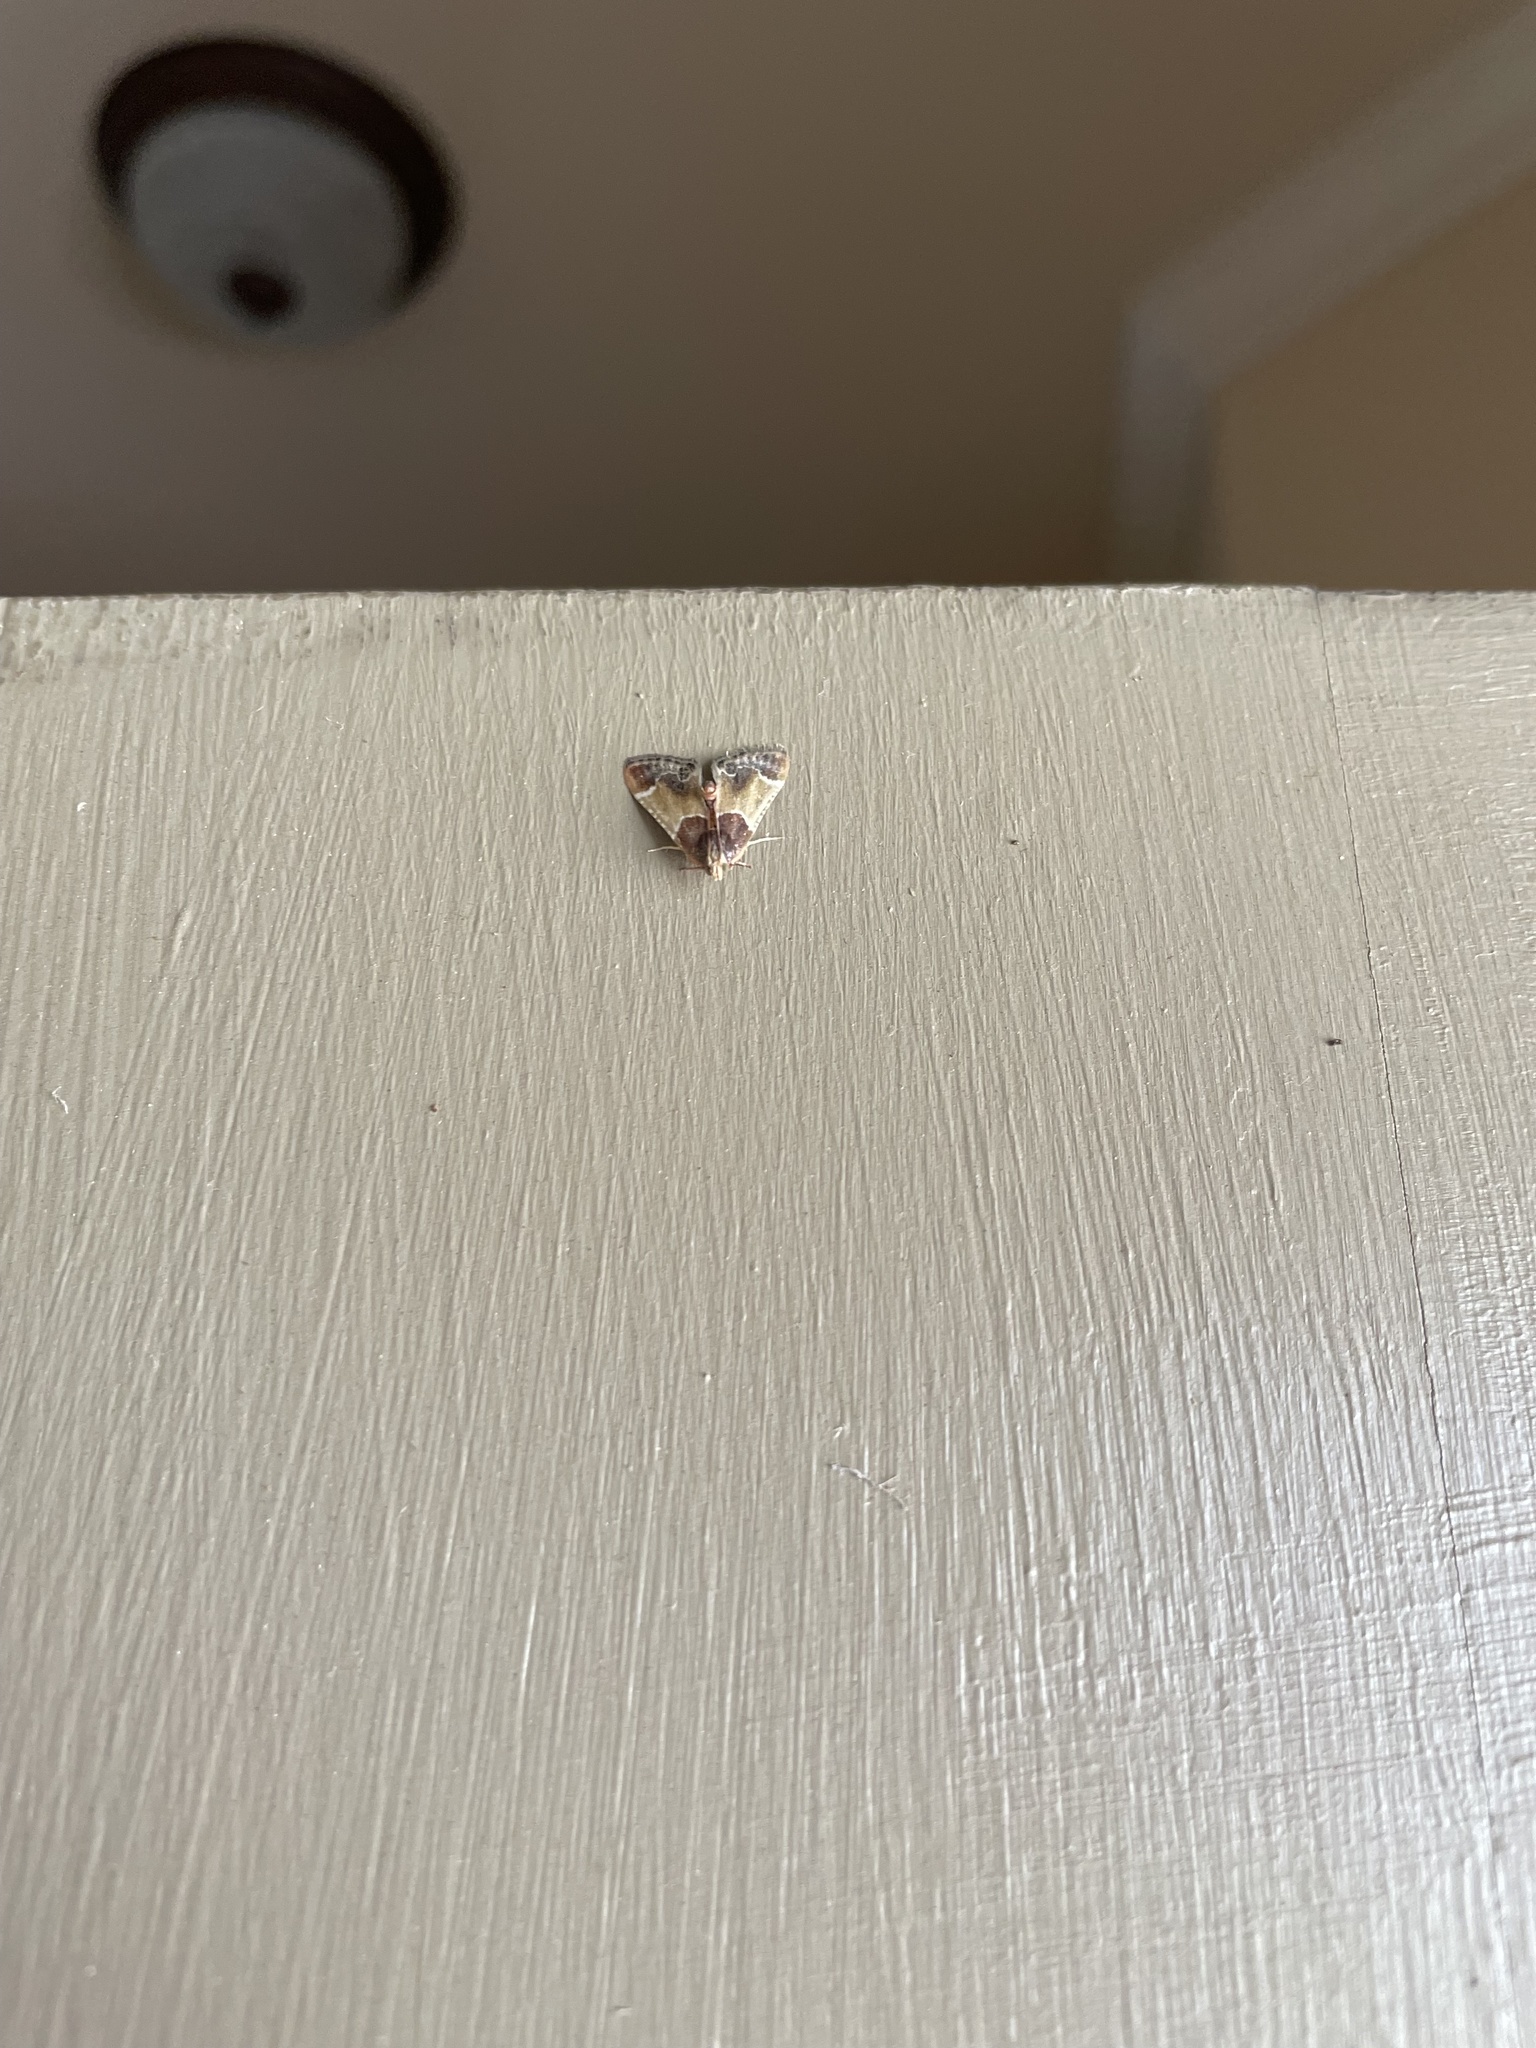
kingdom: Animalia
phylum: Arthropoda
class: Insecta
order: Lepidoptera
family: Pyralidae
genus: Pyralis
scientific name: Pyralis farinalis
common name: Meal moth
